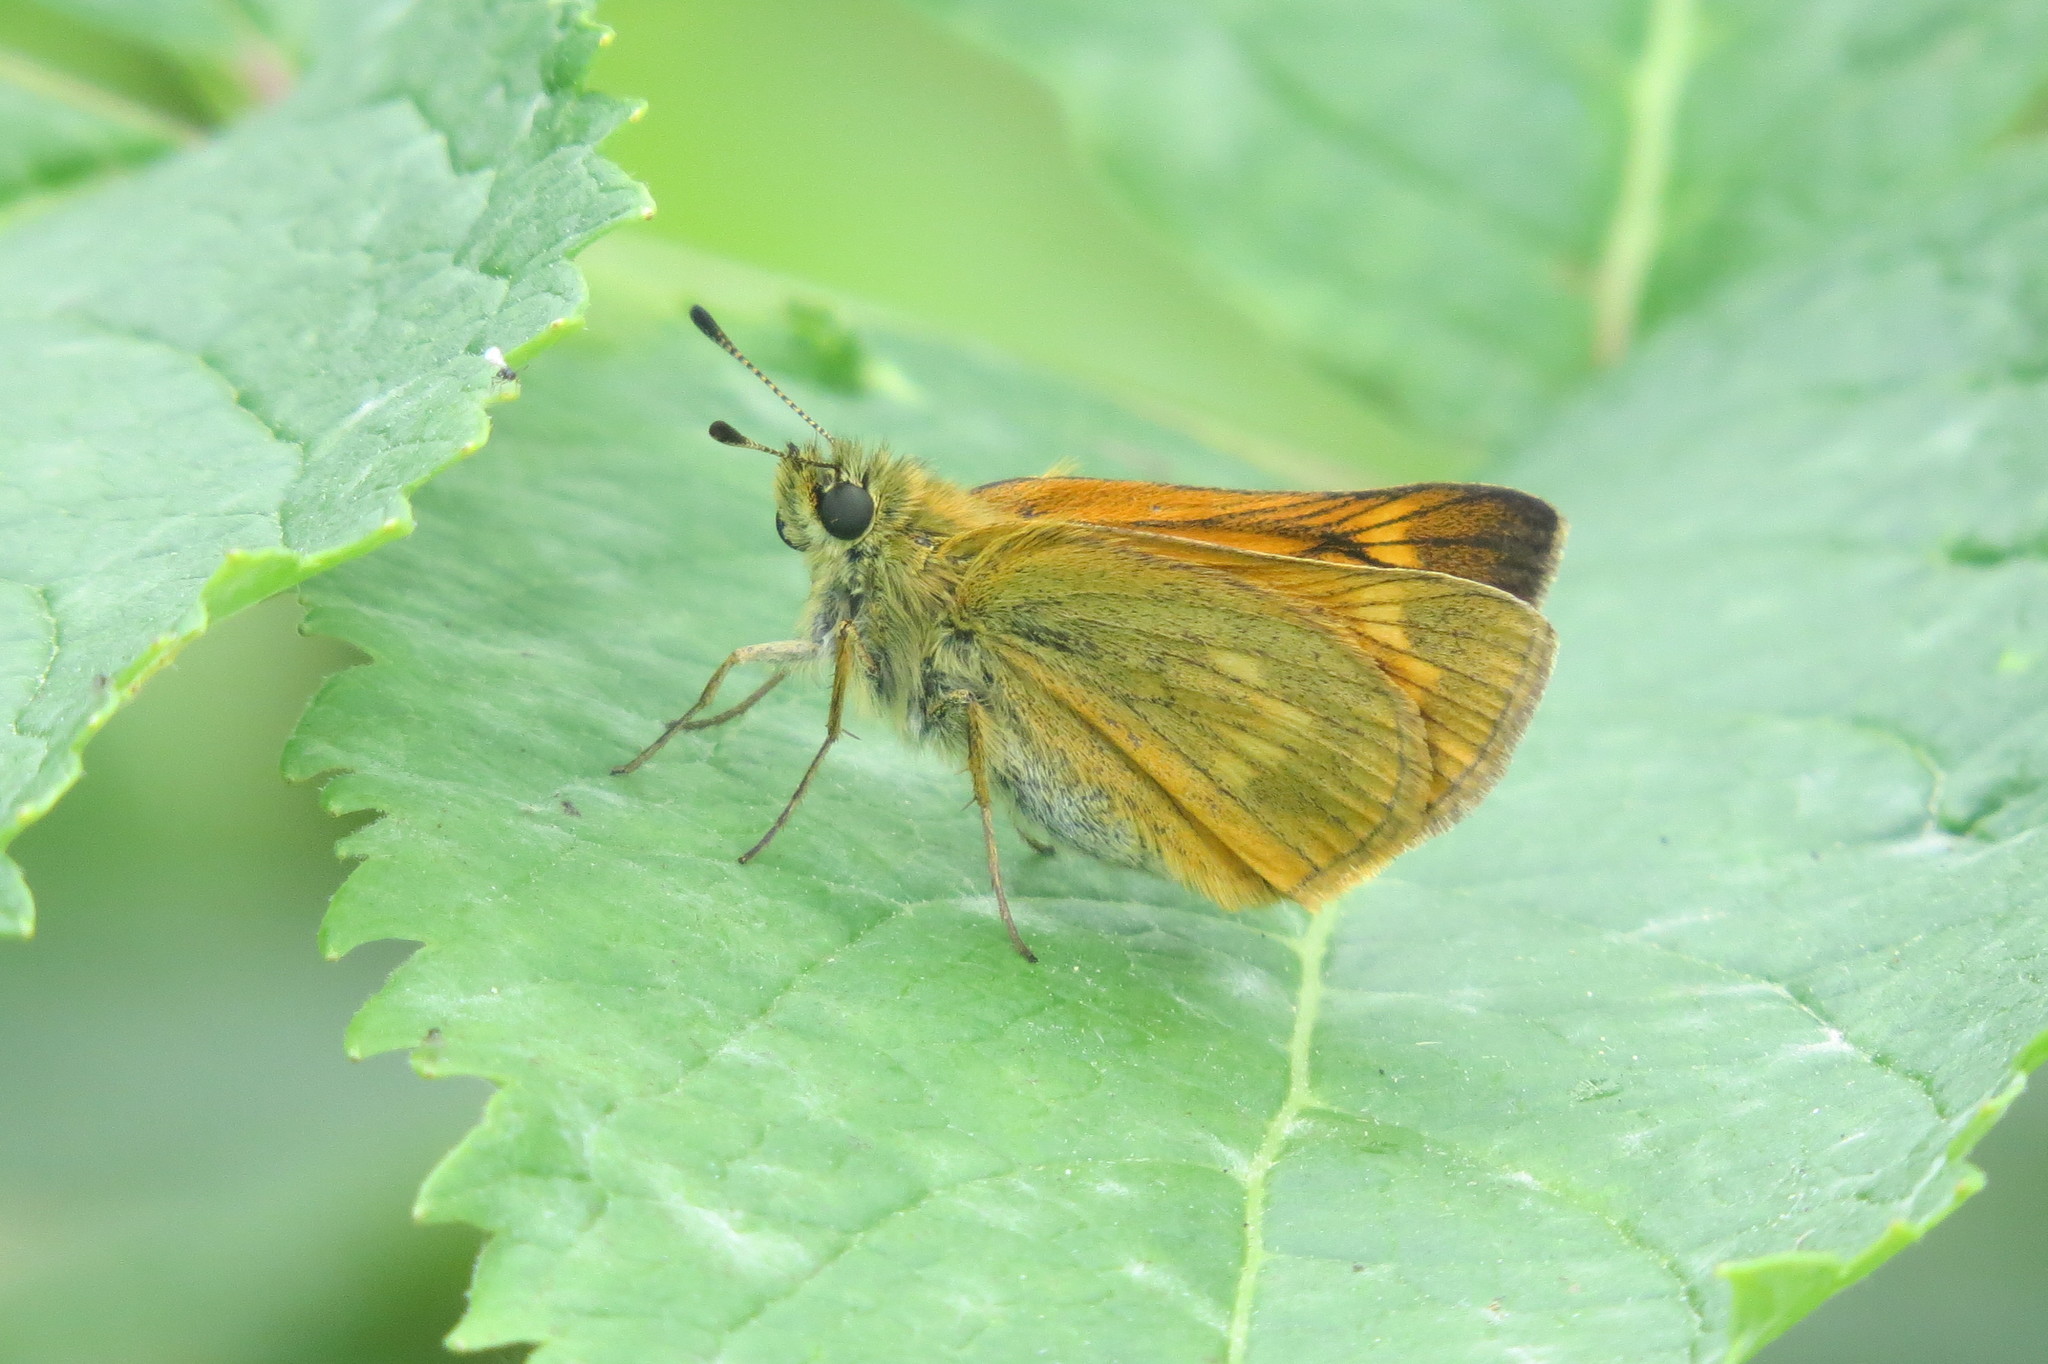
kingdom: Animalia
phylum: Arthropoda
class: Insecta
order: Lepidoptera
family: Hesperiidae
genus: Ochlodes
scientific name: Ochlodes venata
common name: Large skipper
